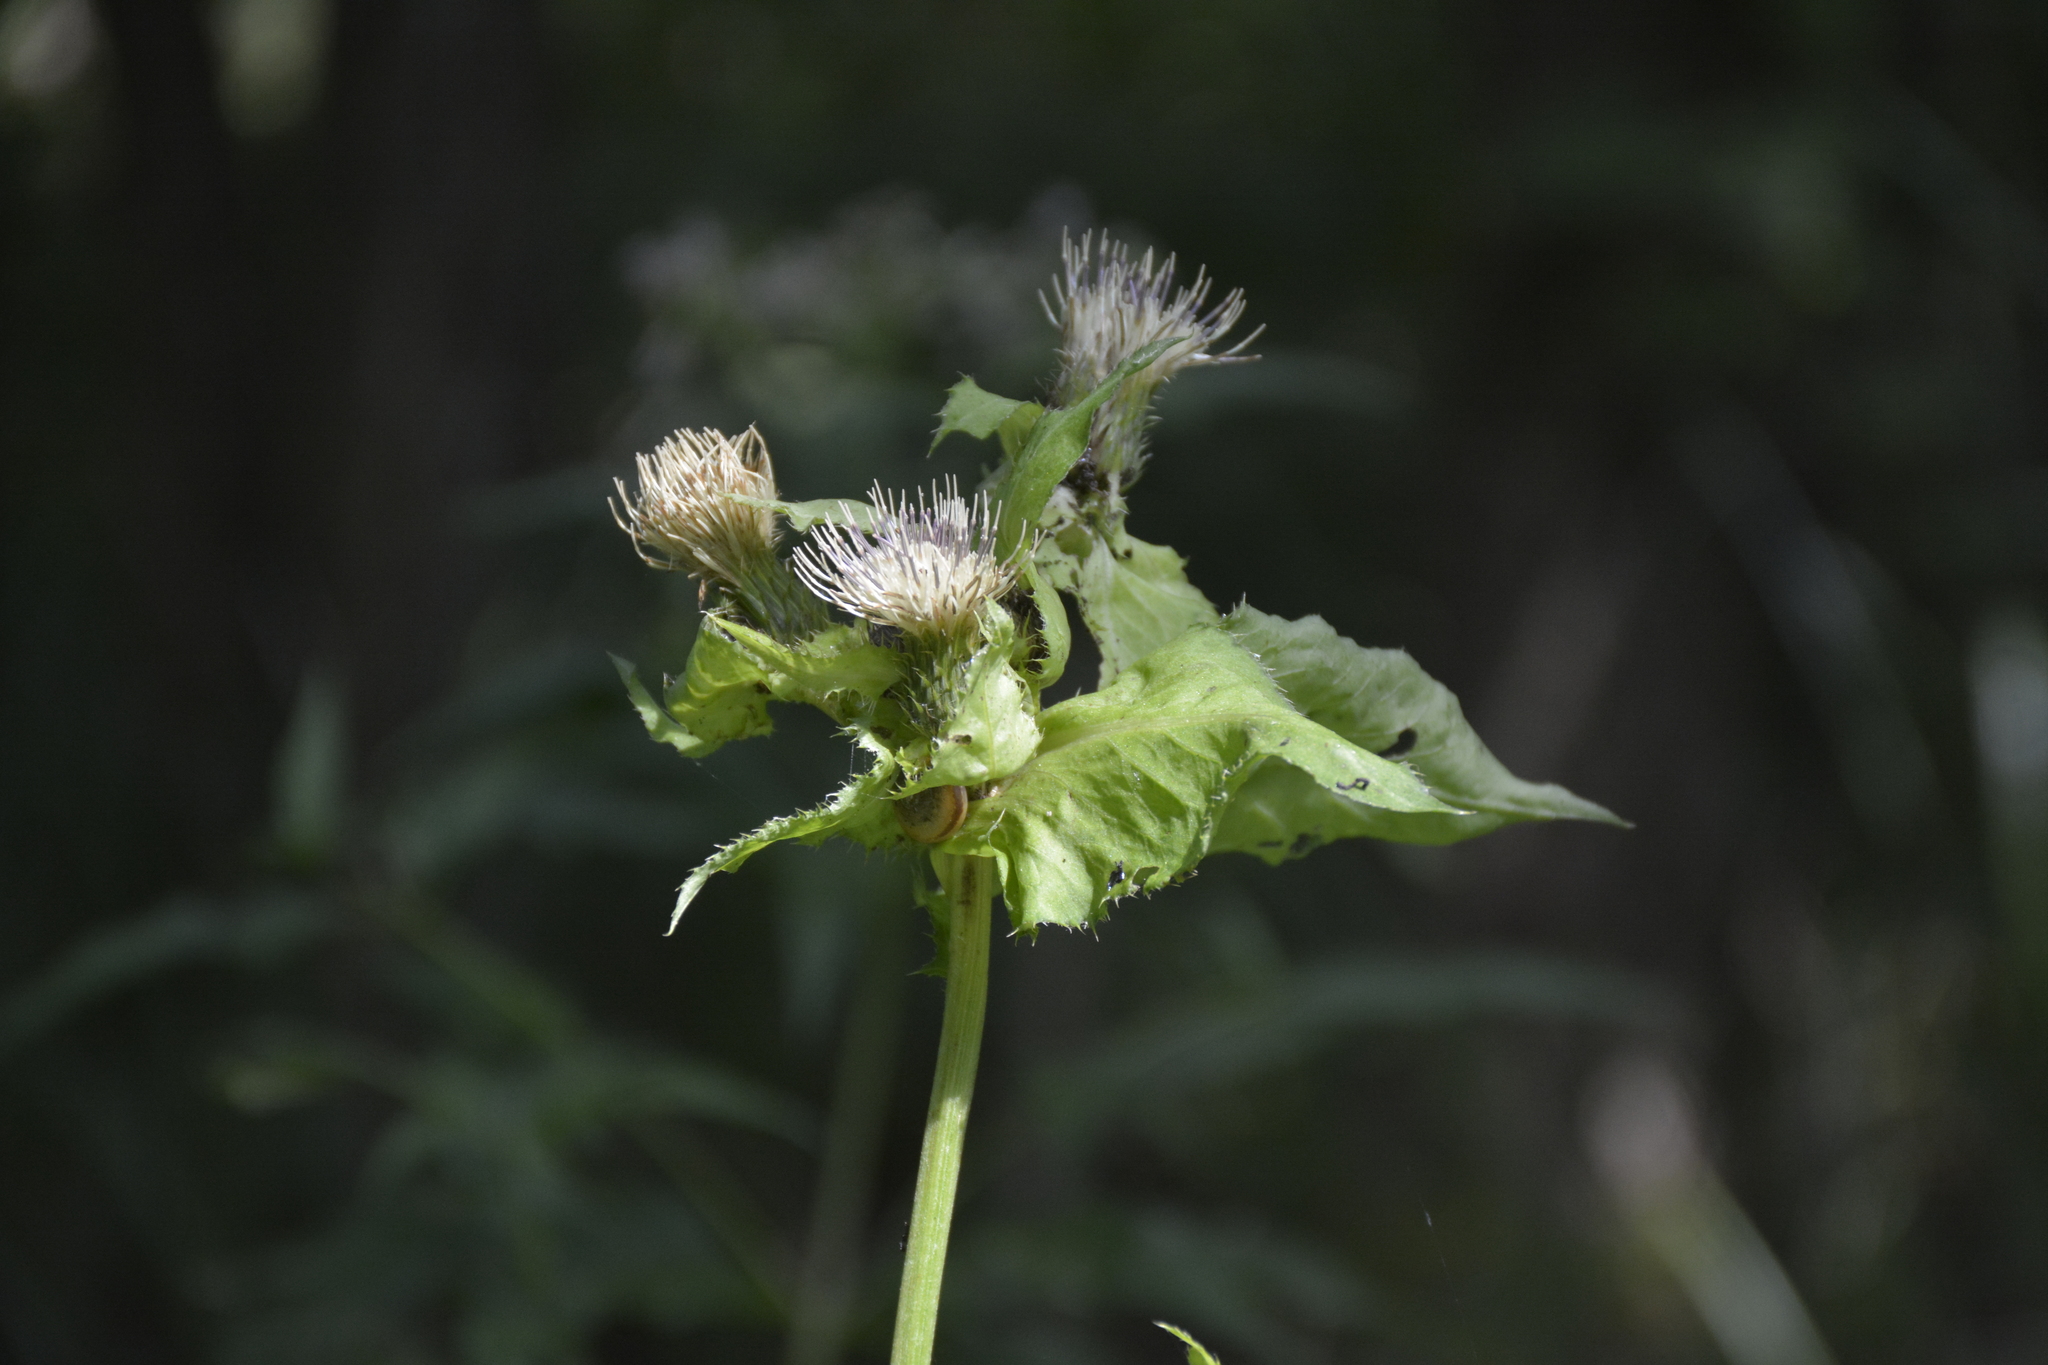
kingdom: Plantae
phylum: Tracheophyta
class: Magnoliopsida
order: Asterales
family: Asteraceae
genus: Cirsium
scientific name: Cirsium oleraceum
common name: Cabbage thistle
